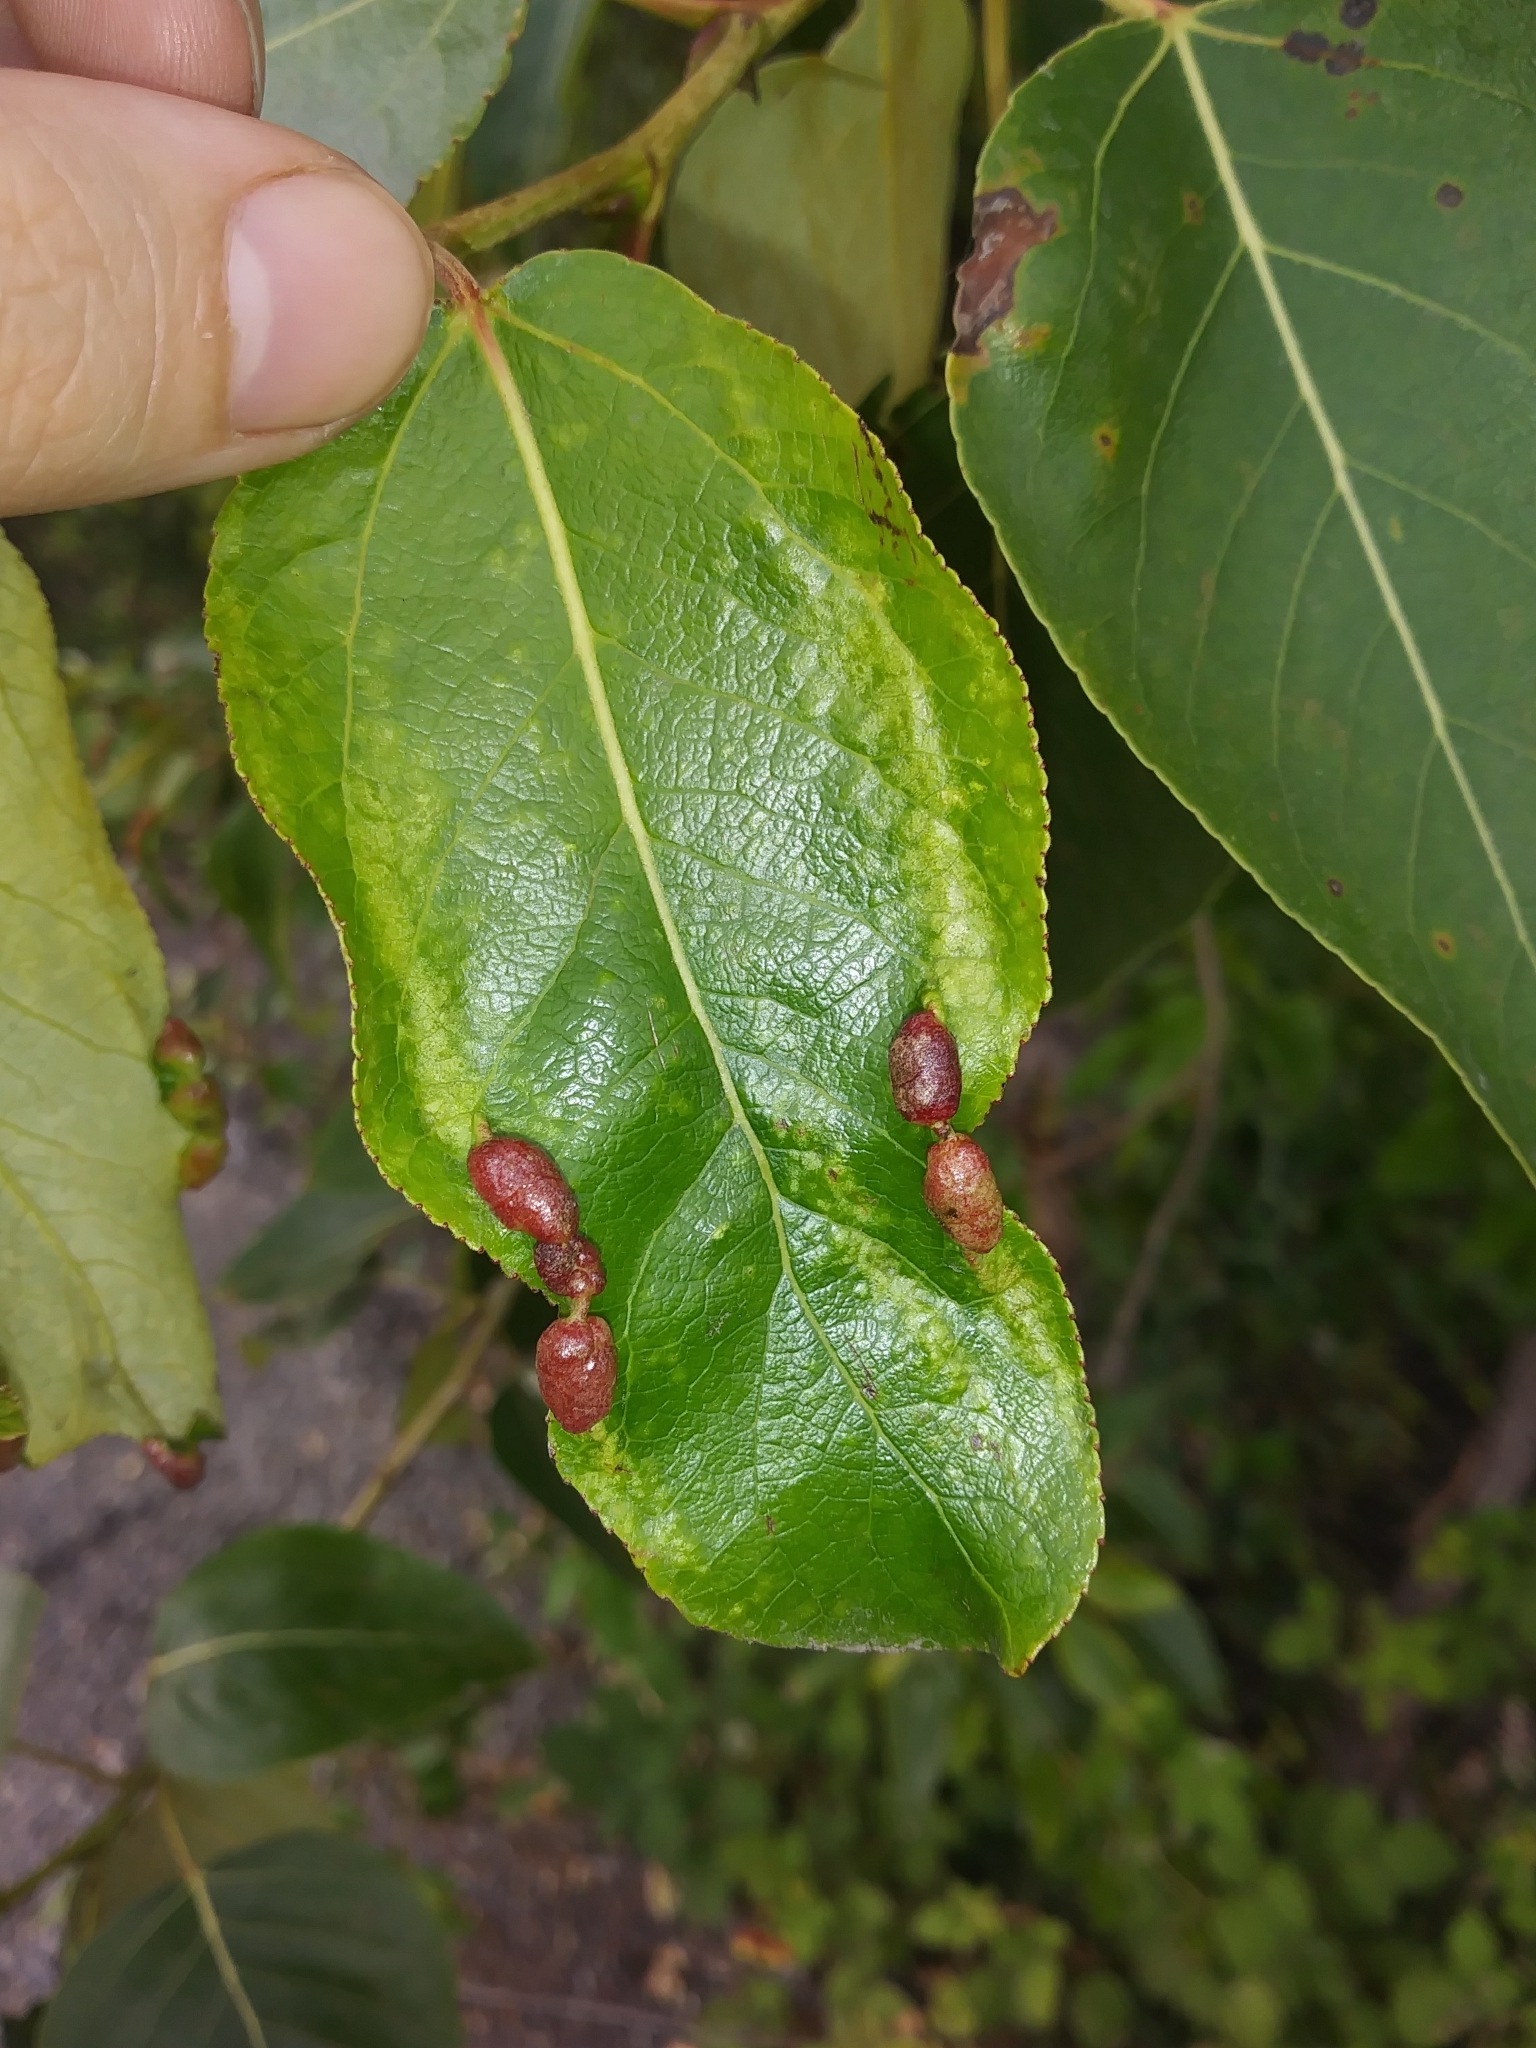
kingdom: Animalia
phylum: Arthropoda
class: Insecta
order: Hemiptera
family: Aphididae
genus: Thecabius
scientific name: Thecabius populimonilis
